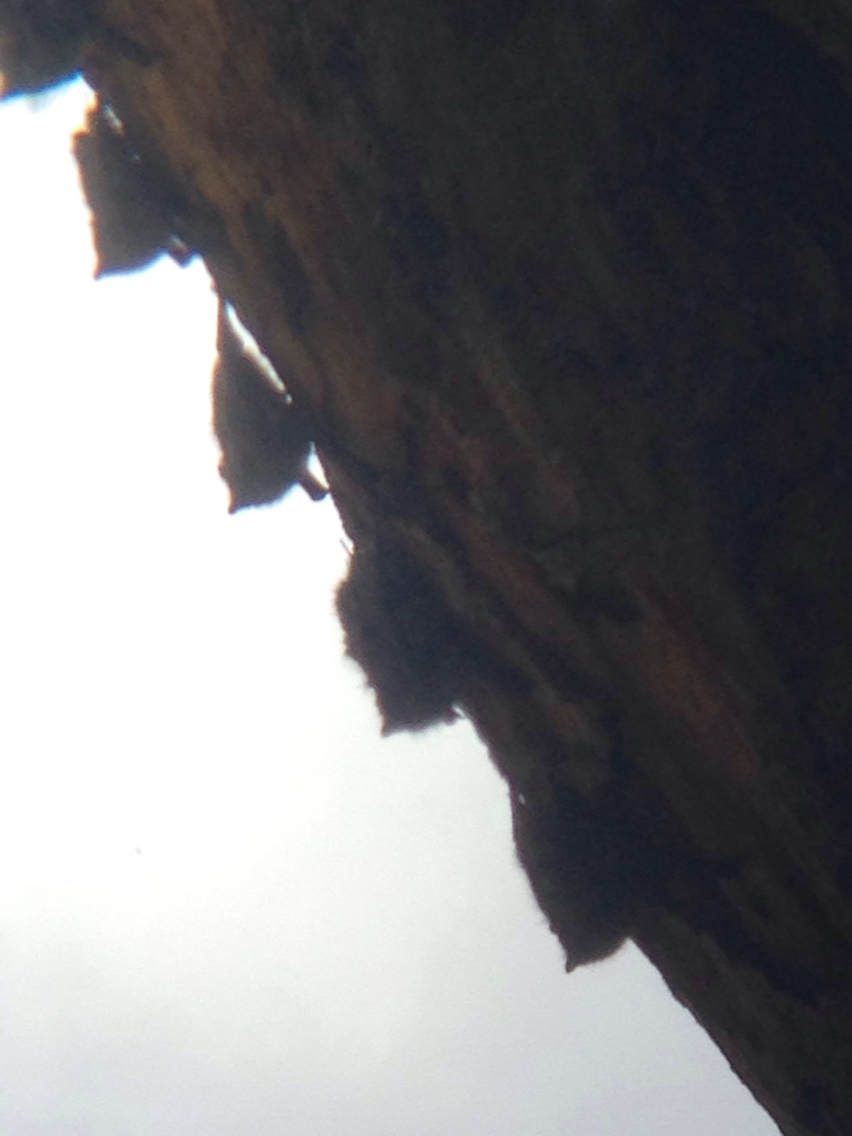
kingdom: Animalia
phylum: Chordata
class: Mammalia
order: Chiroptera
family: Emballonuridae
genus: Rhynchonycteris
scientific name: Rhynchonycteris naso
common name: Proboscis bat
